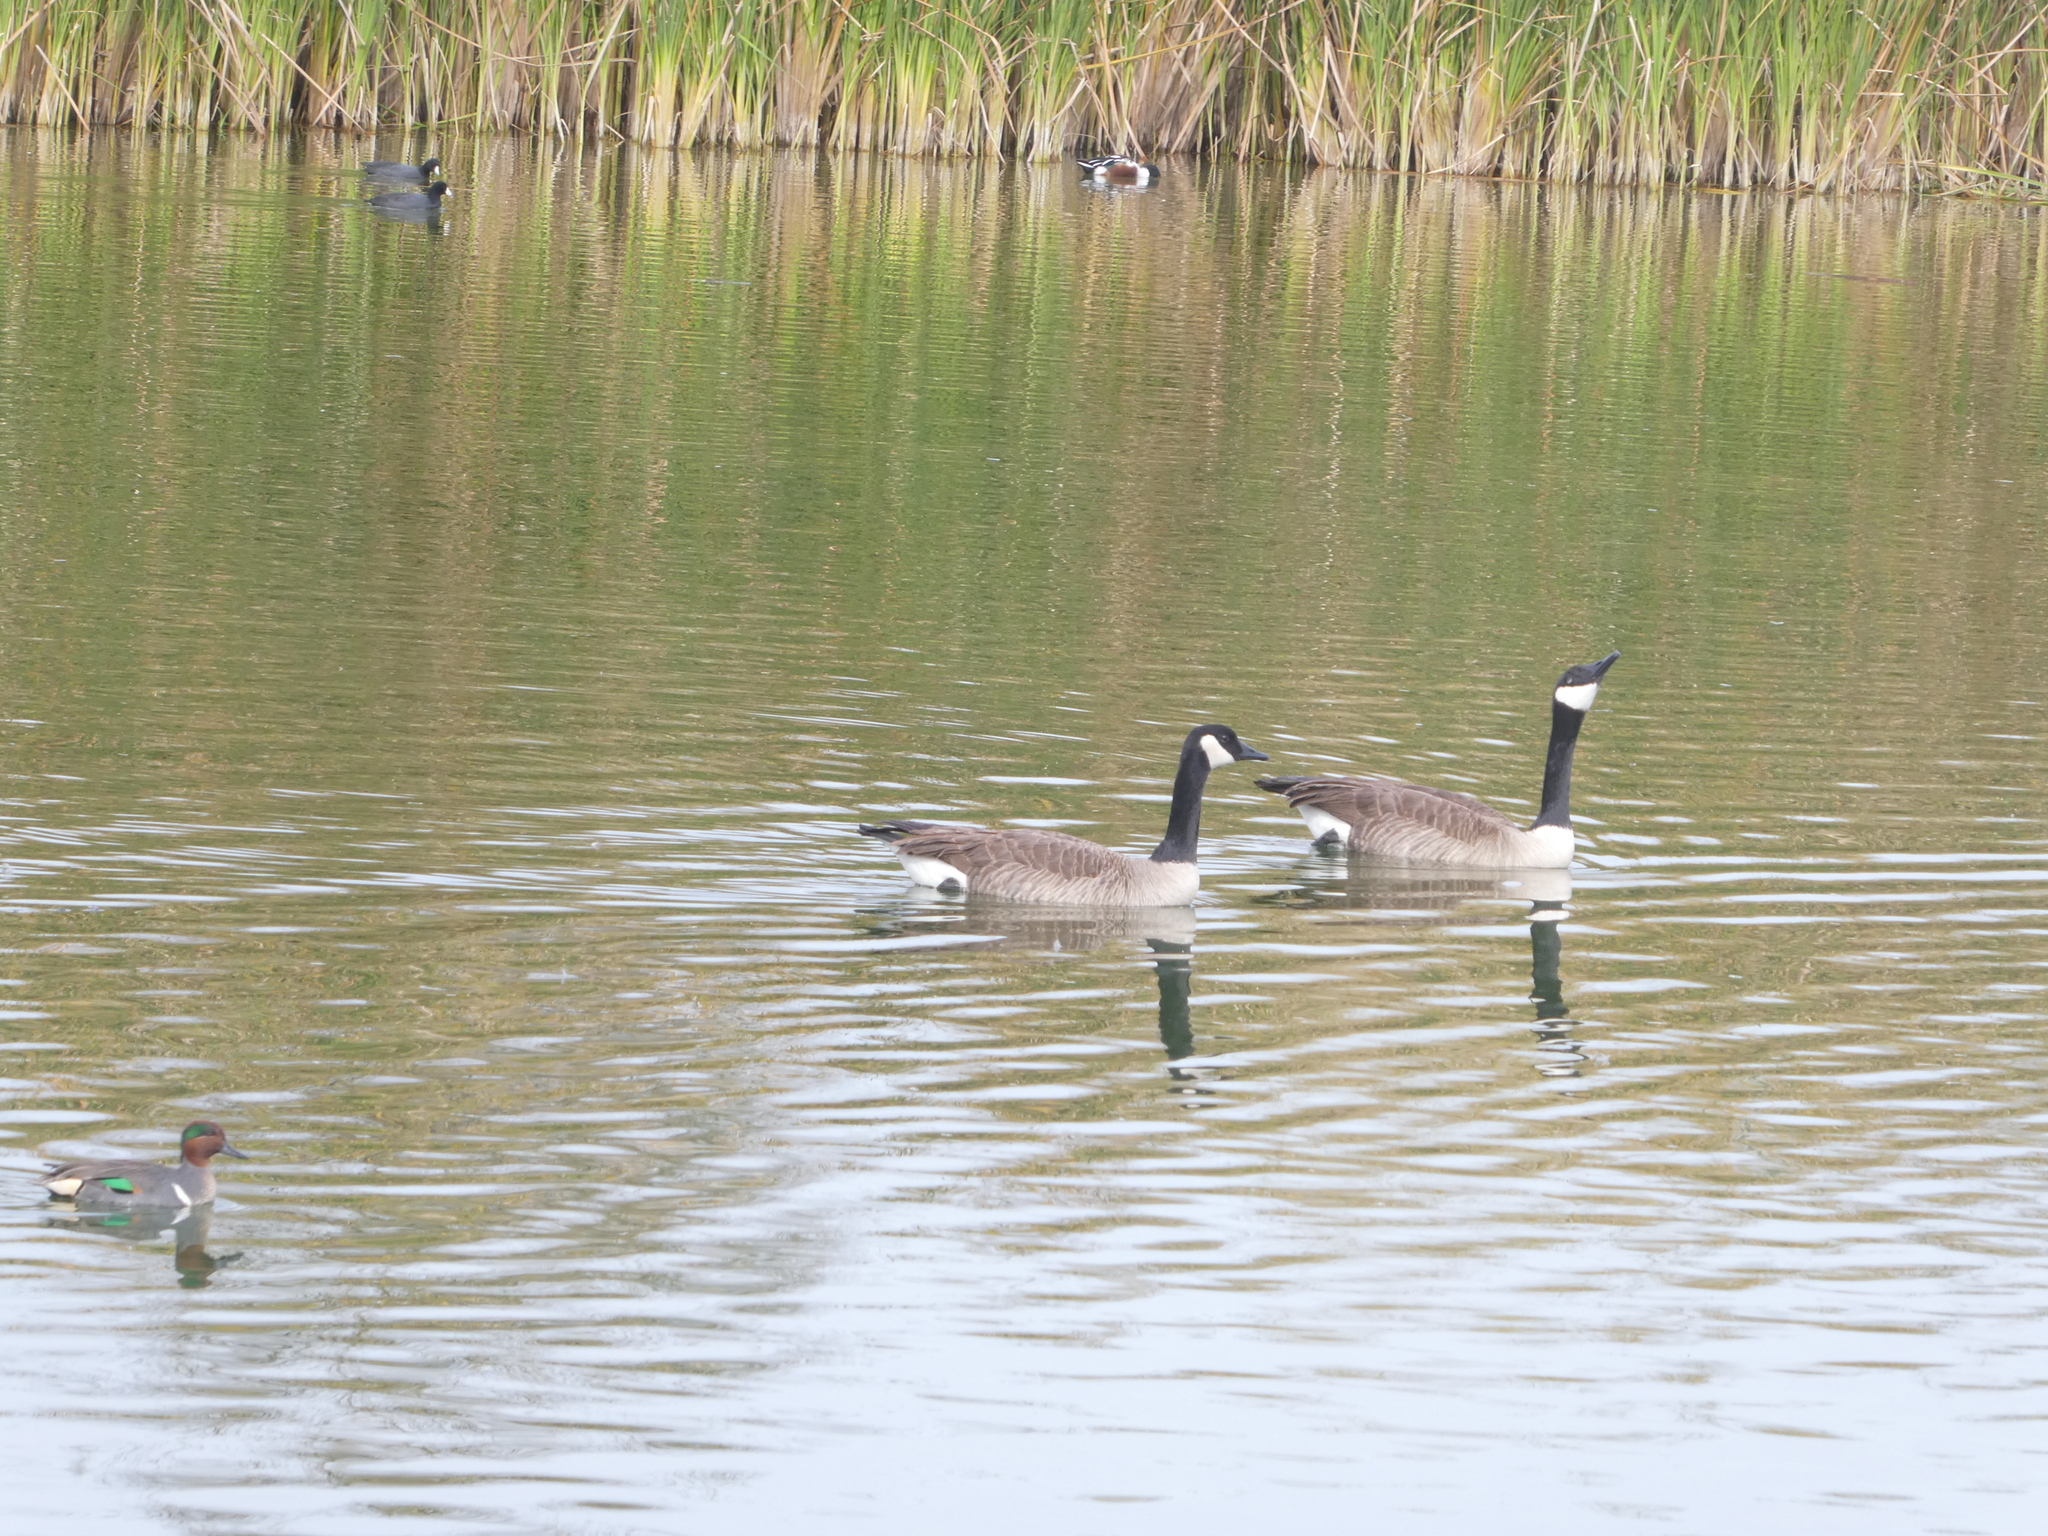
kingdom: Animalia
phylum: Chordata
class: Aves
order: Anseriformes
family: Anatidae
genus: Branta
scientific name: Branta canadensis
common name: Canada goose
